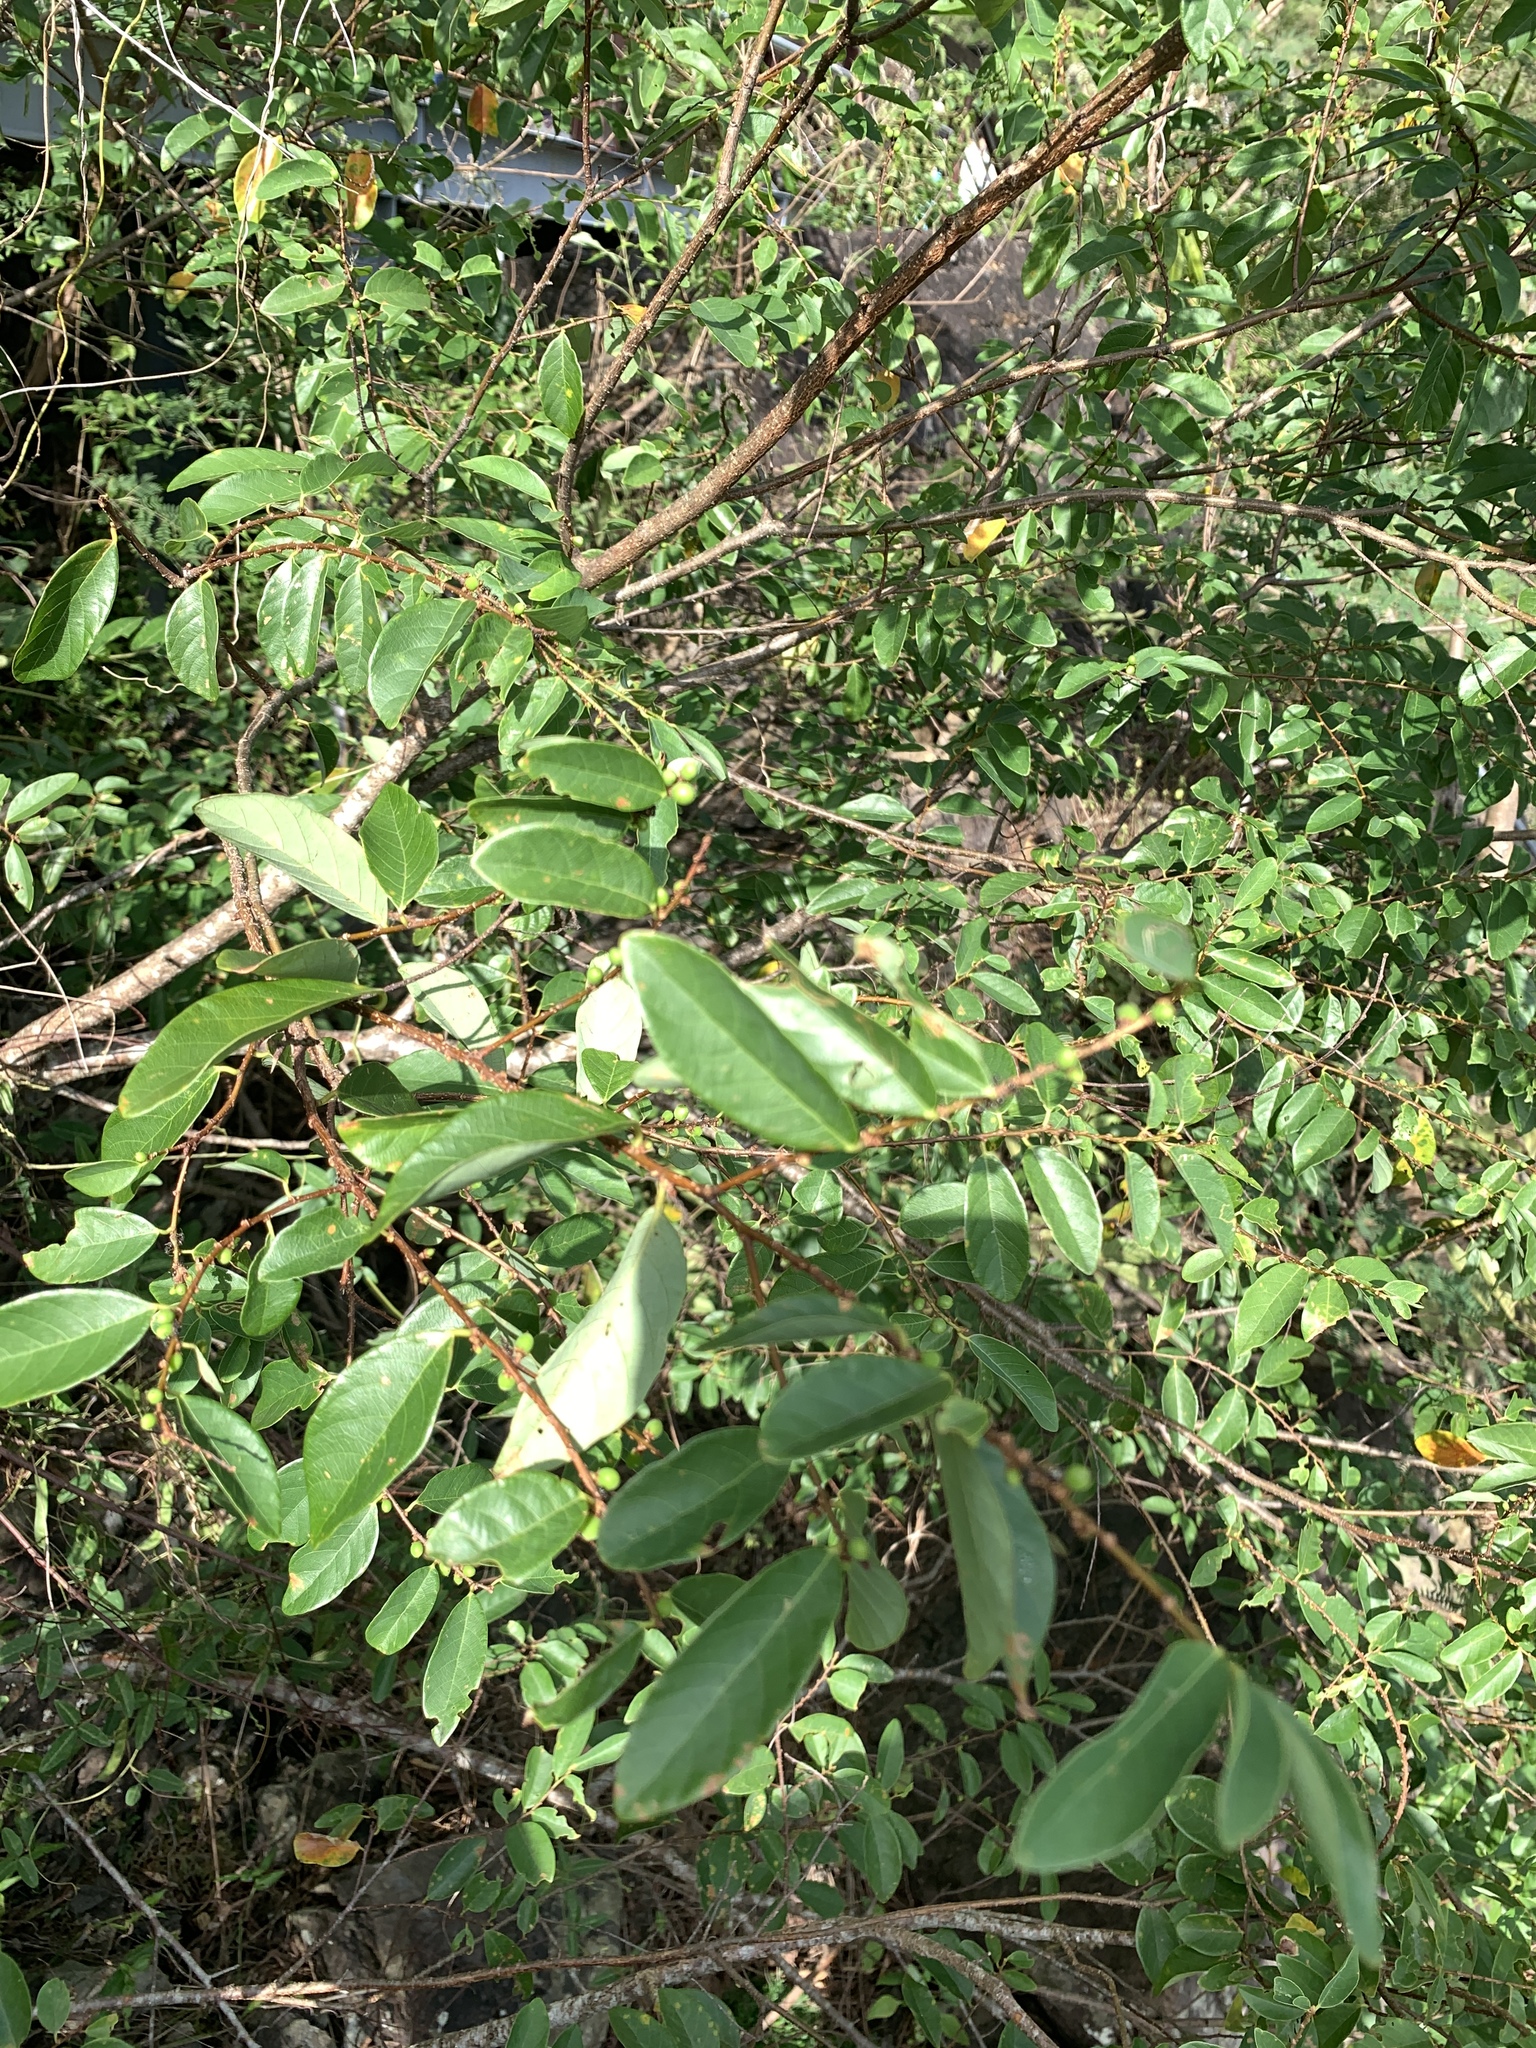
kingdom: Plantae
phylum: Tracheophyta
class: Magnoliopsida
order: Malpighiales
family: Phyllanthaceae
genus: Bridelia
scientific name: Bridelia tomentosa
